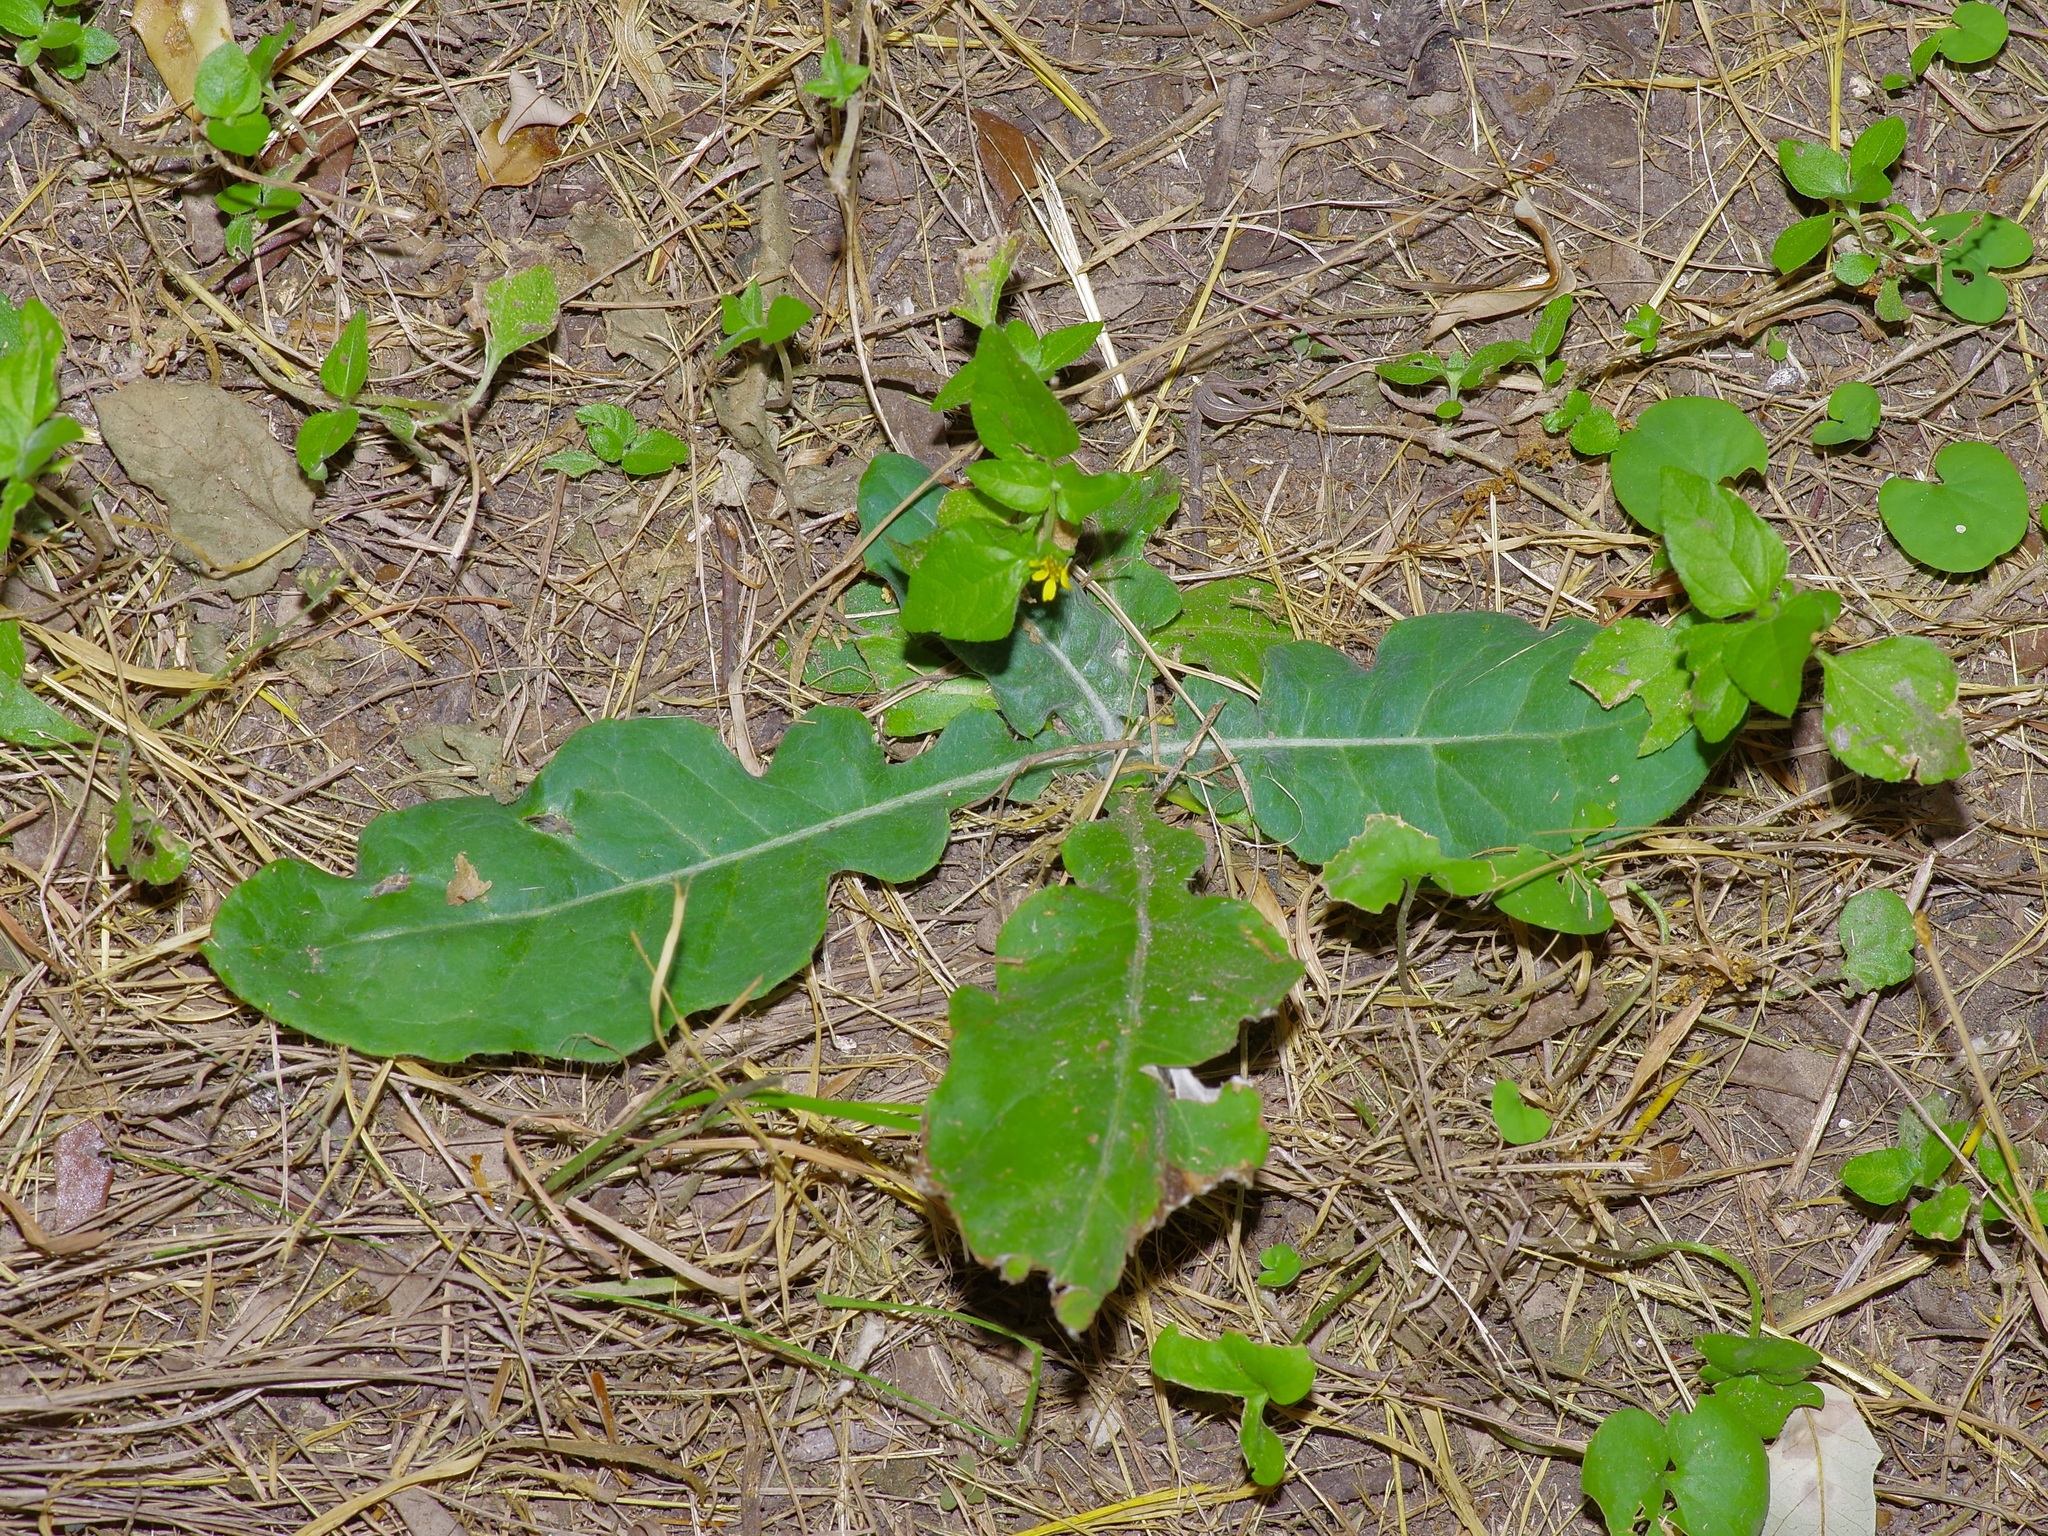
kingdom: Plantae
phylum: Tracheophyta
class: Magnoliopsida
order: Asterales
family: Asteraceae
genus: Chaptalia
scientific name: Chaptalia texana
